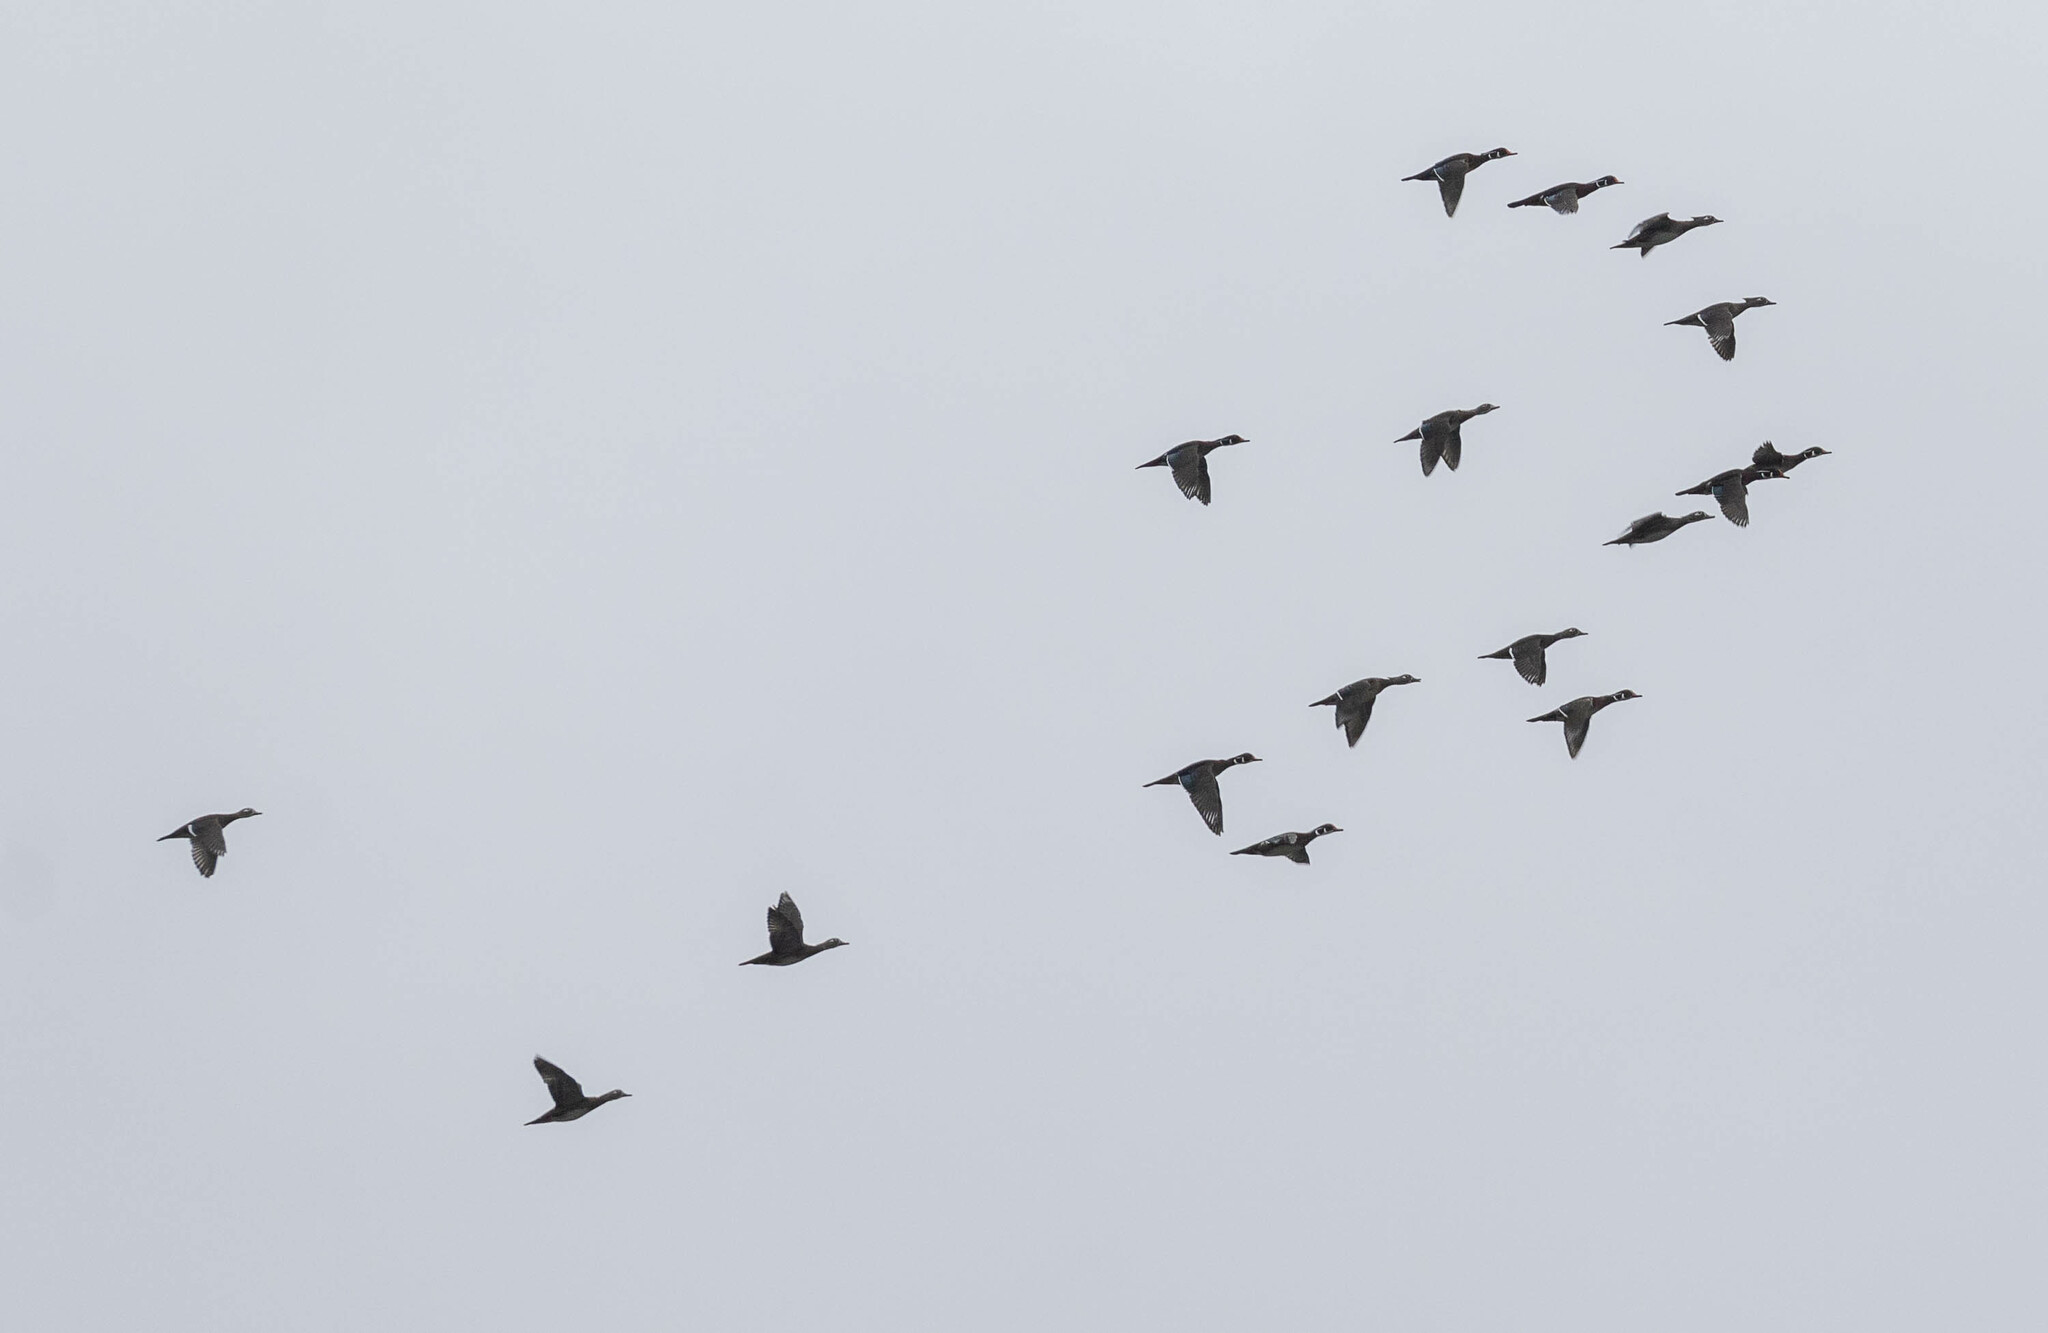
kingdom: Animalia
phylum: Chordata
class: Aves
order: Anseriformes
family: Anatidae
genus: Aix
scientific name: Aix sponsa
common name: Wood duck
